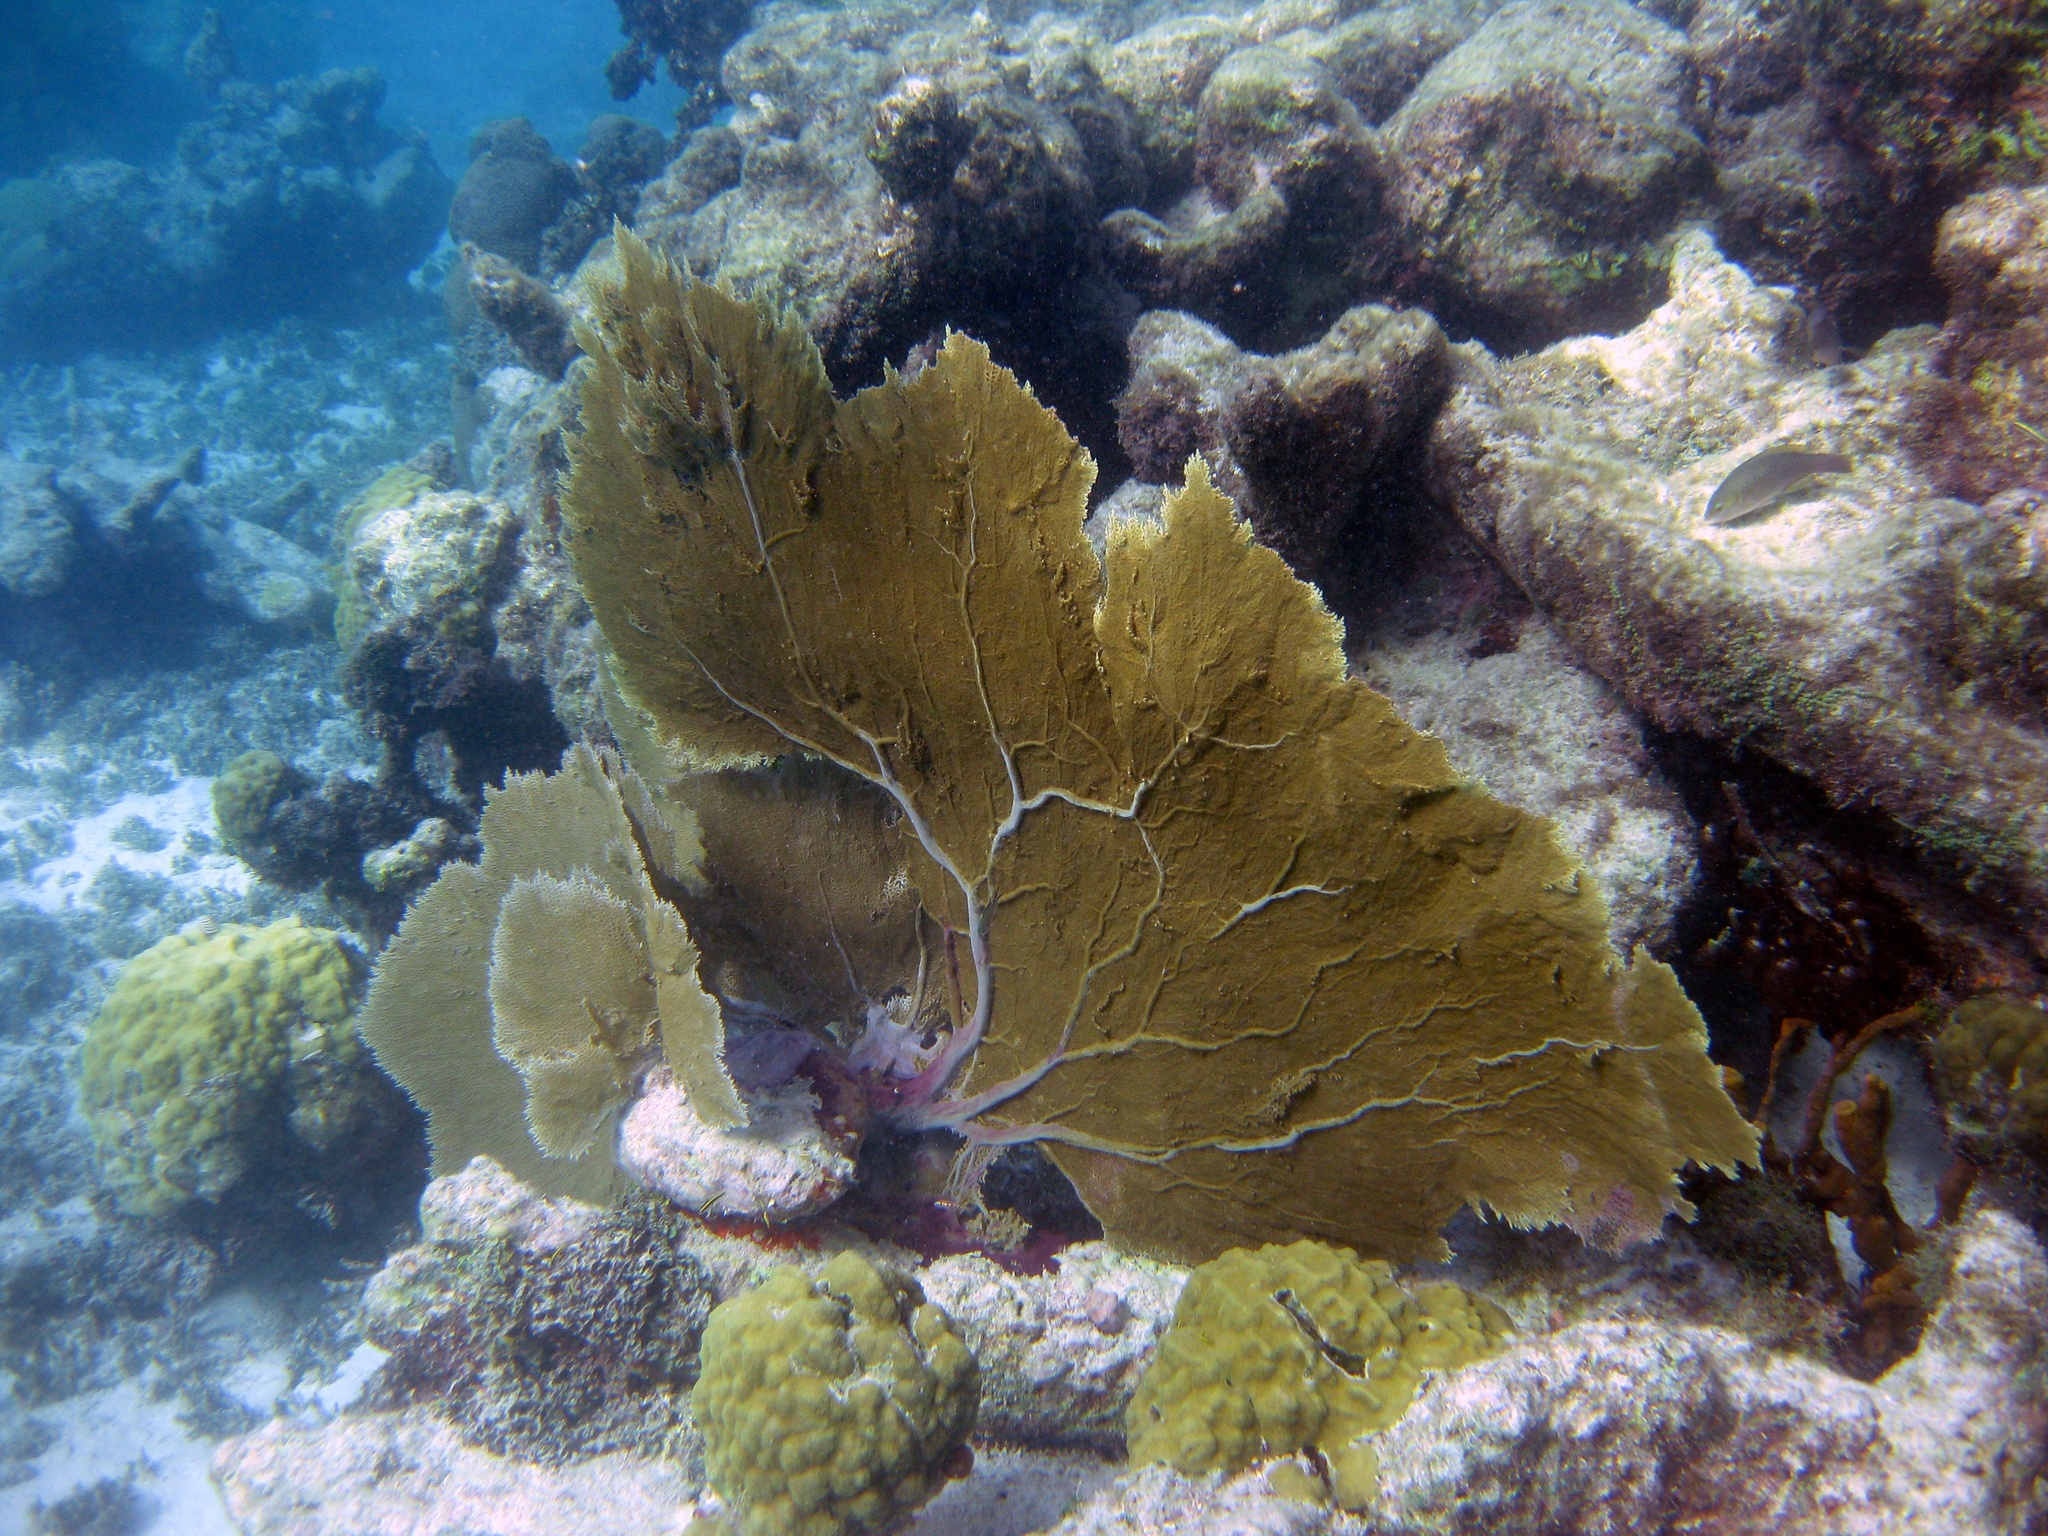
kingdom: Animalia
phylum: Cnidaria
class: Anthozoa
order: Malacalcyonacea
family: Gorgoniidae
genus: Gorgonia
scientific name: Gorgonia ventalina
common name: Common sea fan
